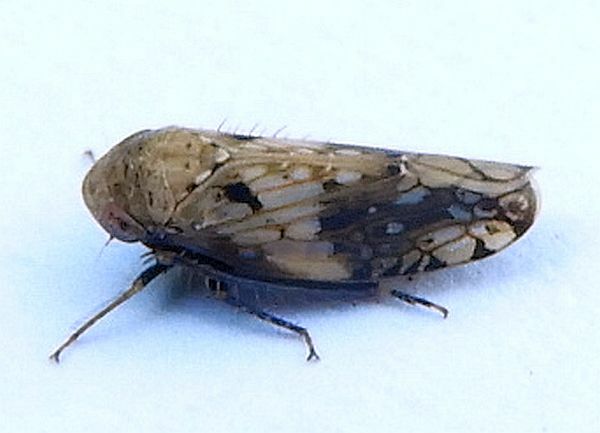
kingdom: Animalia
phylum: Arthropoda
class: Insecta
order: Hemiptera
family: Cicadellidae
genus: Menosoma
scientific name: Menosoma cinctum
